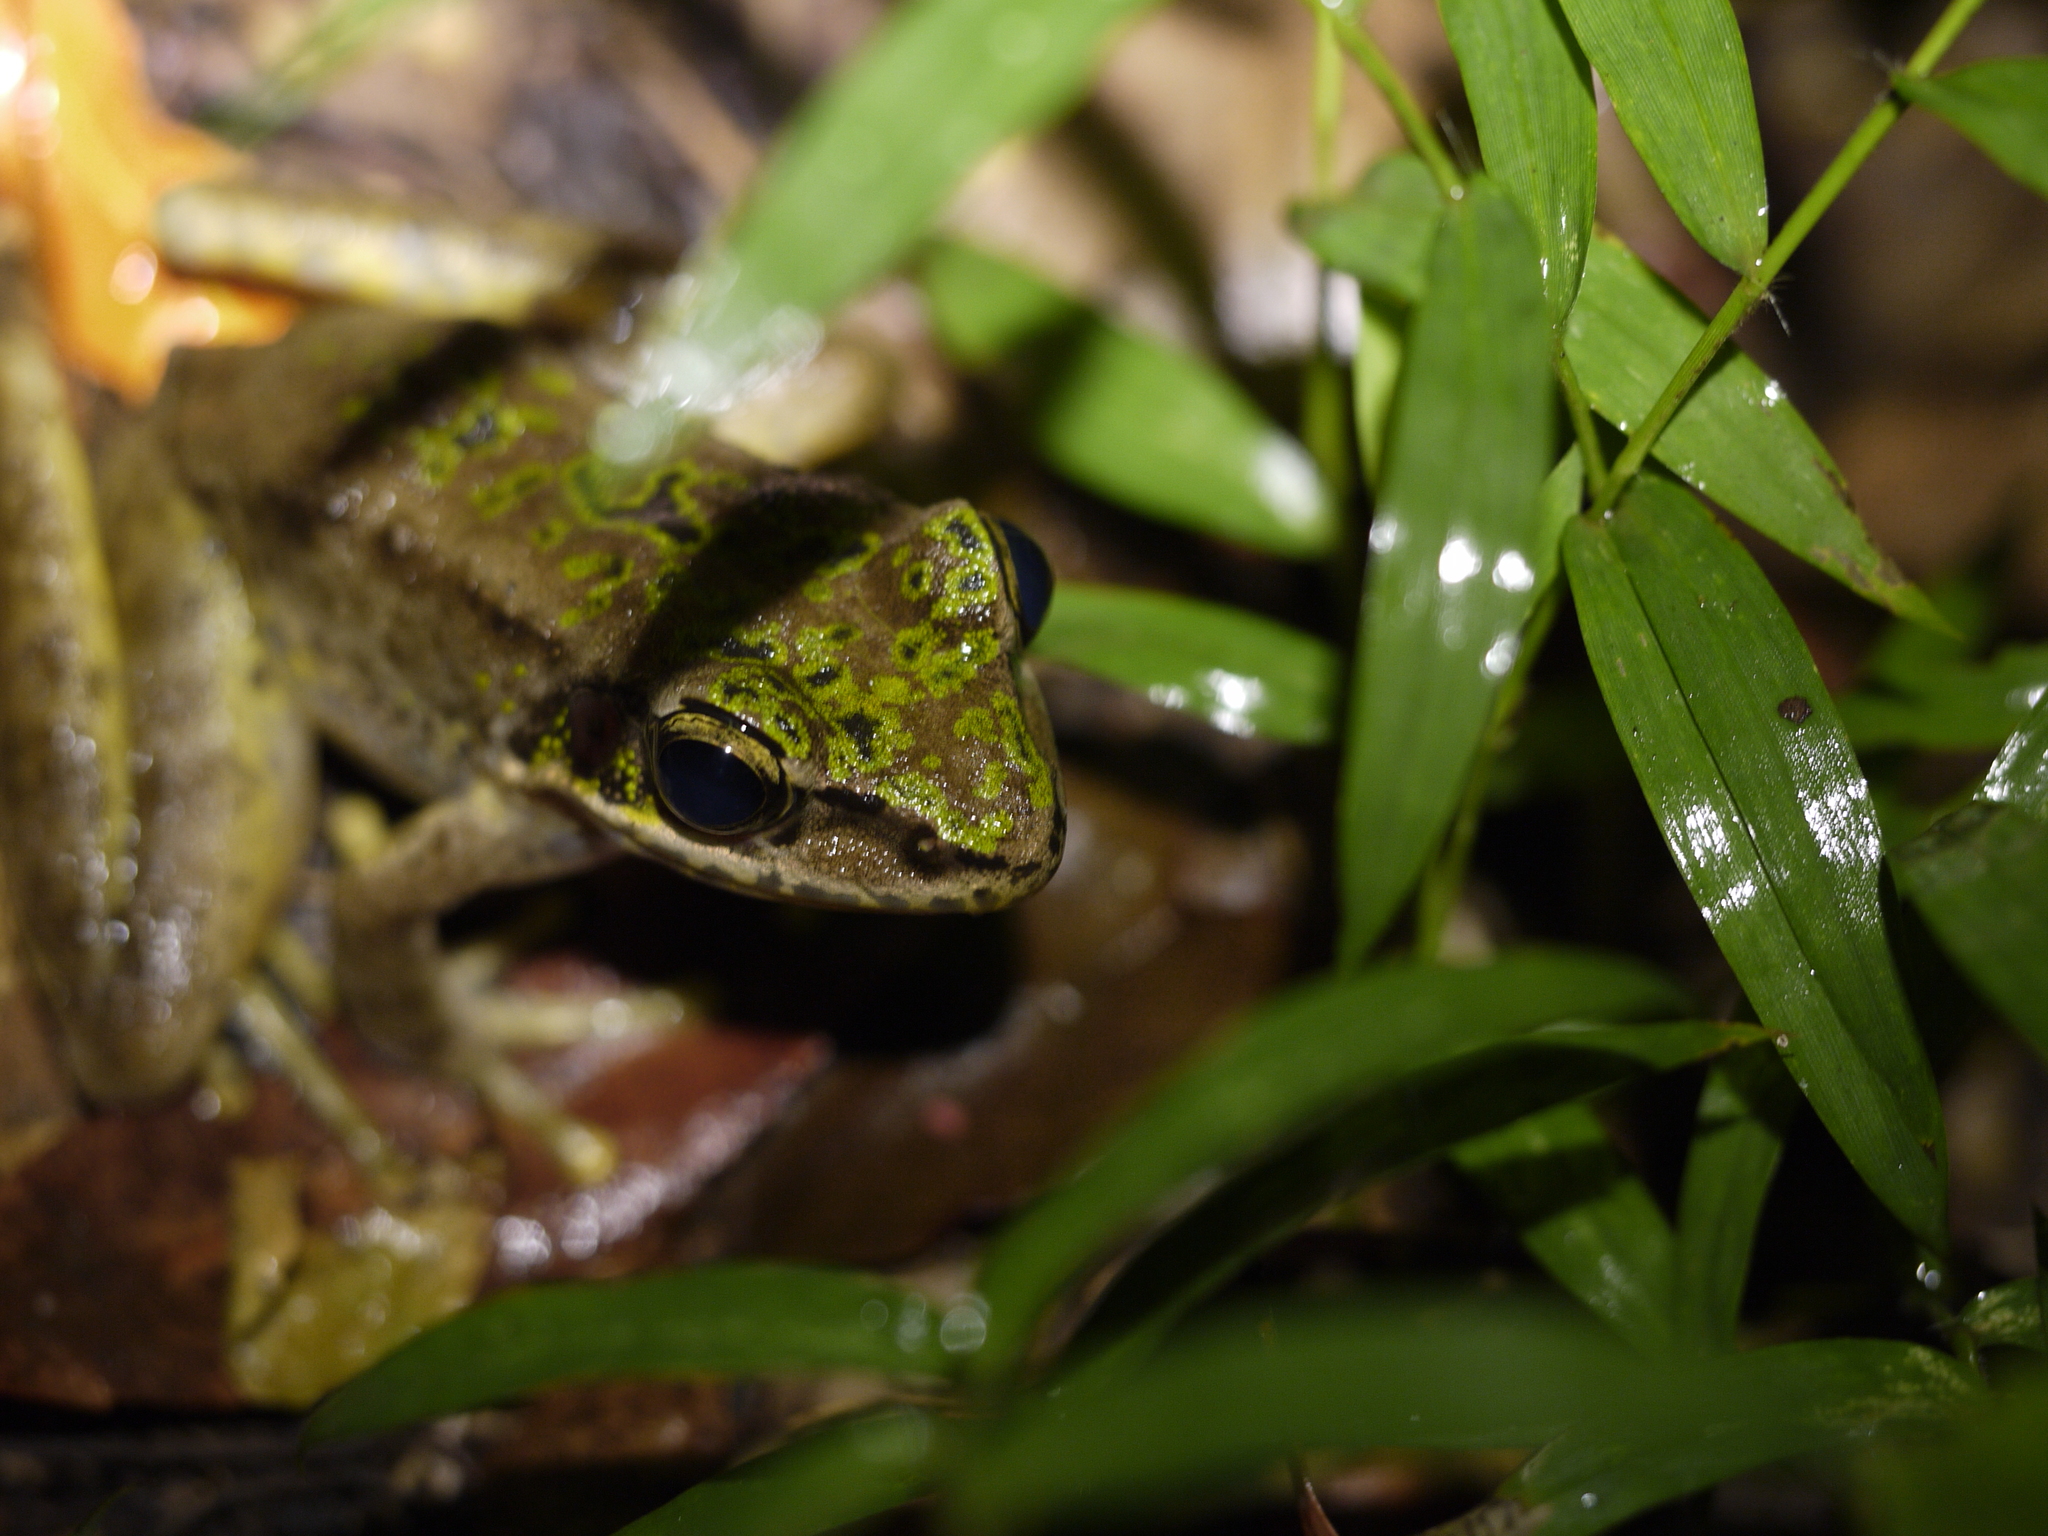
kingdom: Animalia
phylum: Chordata
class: Amphibia
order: Anura
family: Ranidae
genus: Odorrana
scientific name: Odorrana swinhoana
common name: Bangkimtsing frog
